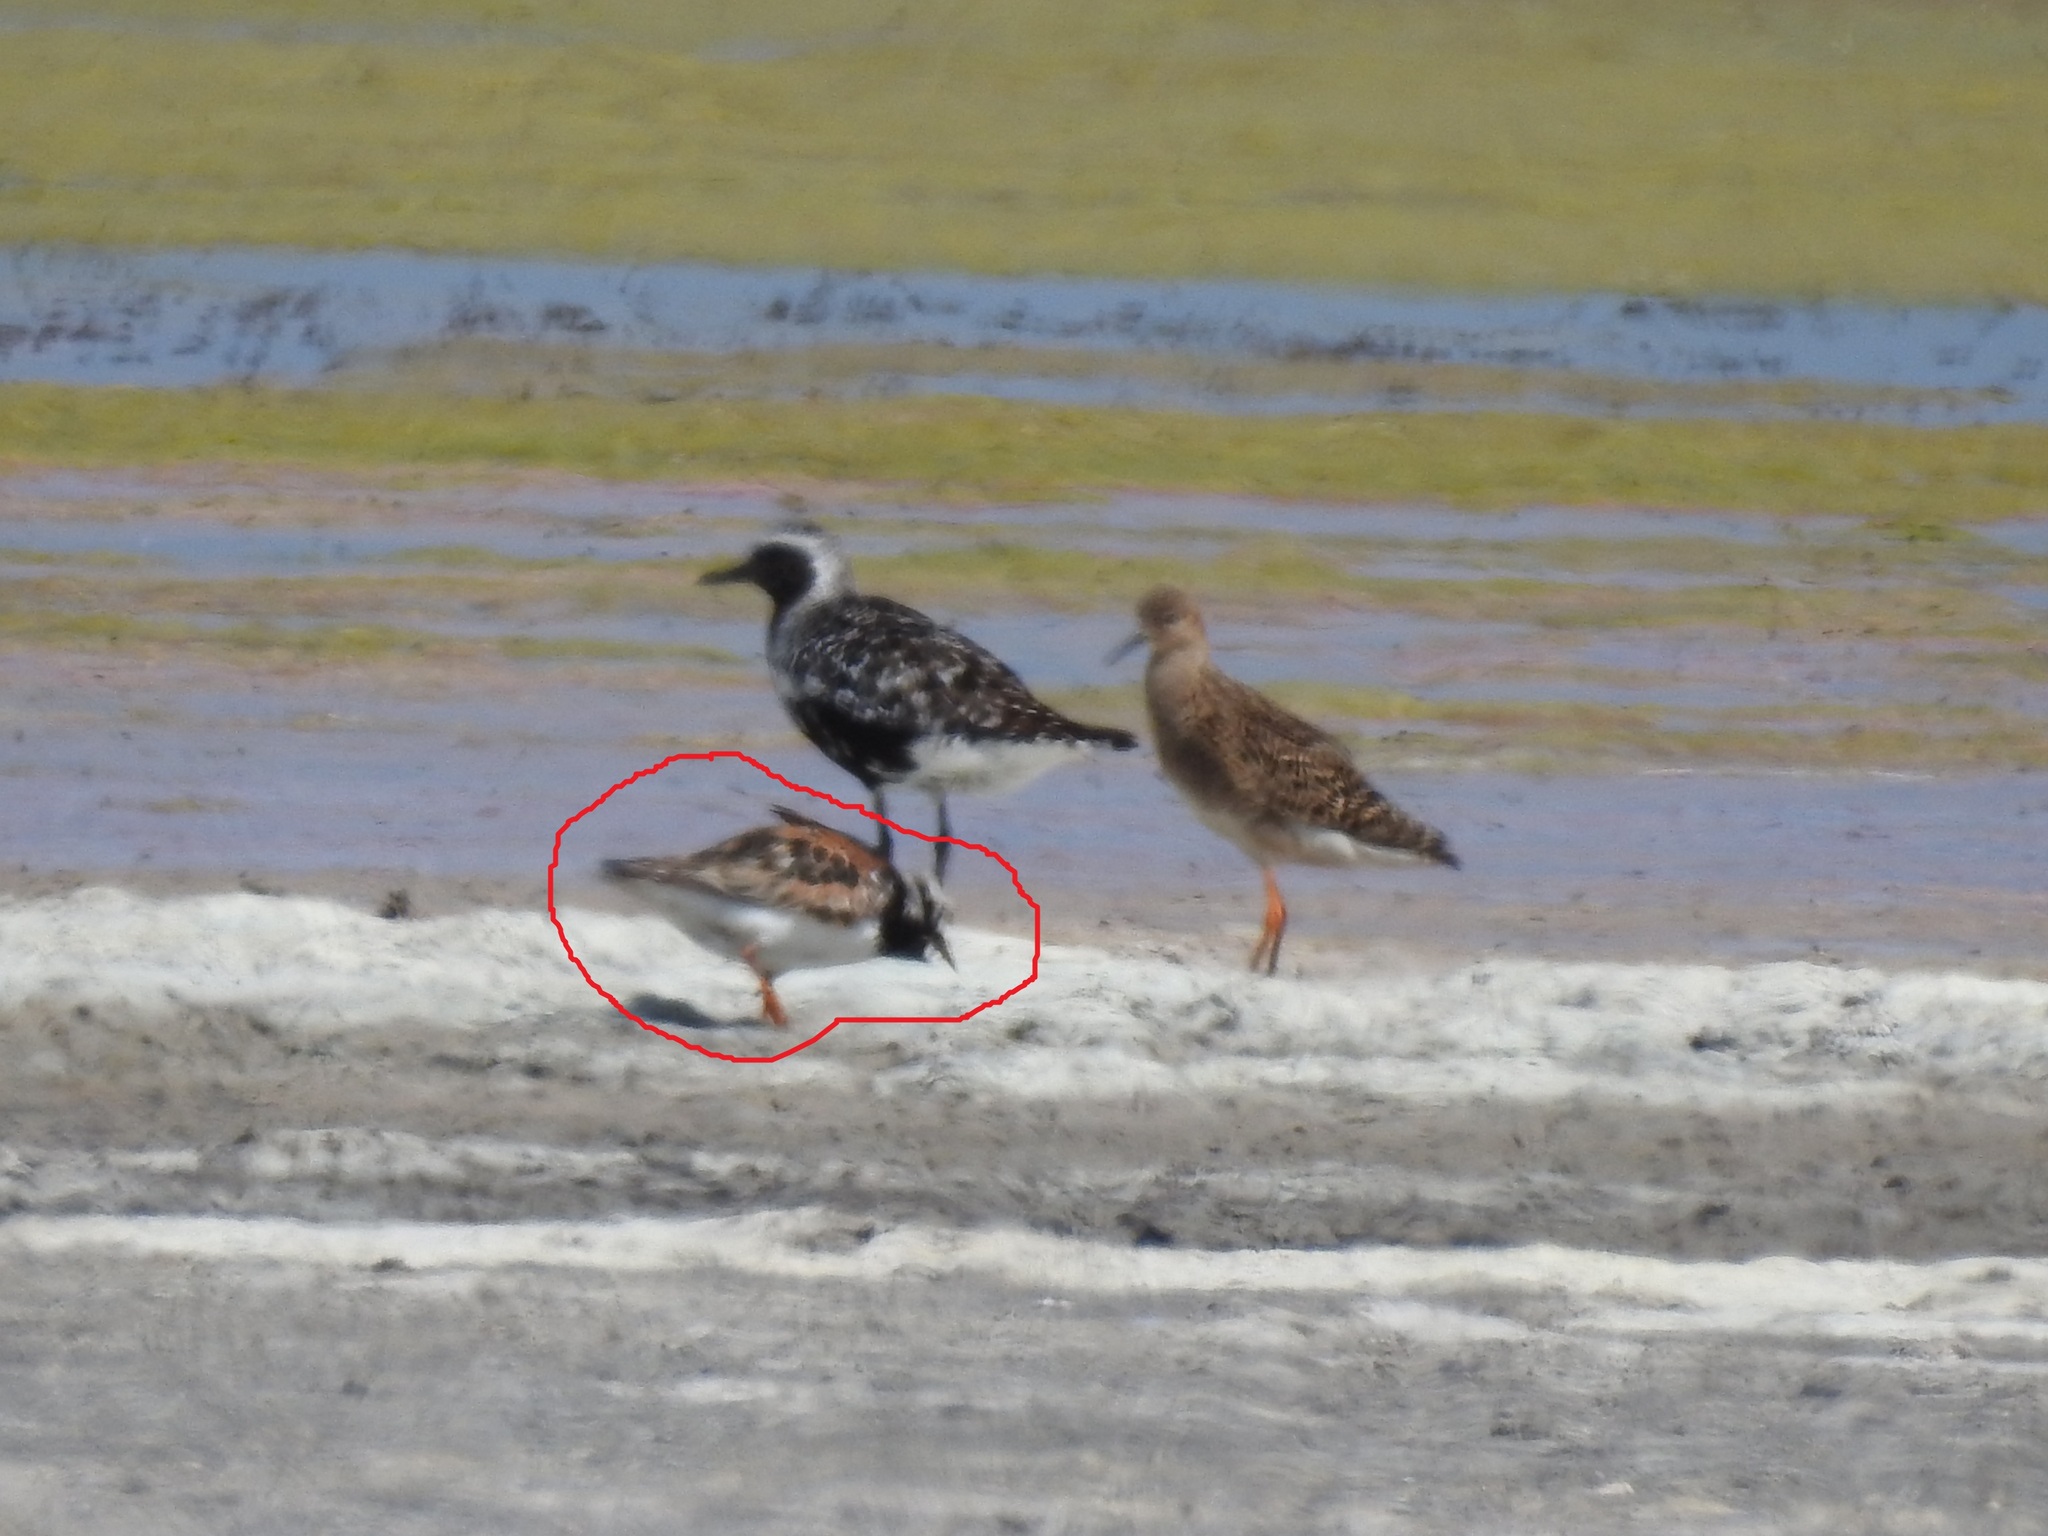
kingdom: Animalia
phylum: Chordata
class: Aves
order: Charadriiformes
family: Scolopacidae
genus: Arenaria
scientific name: Arenaria interpres
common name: Ruddy turnstone
